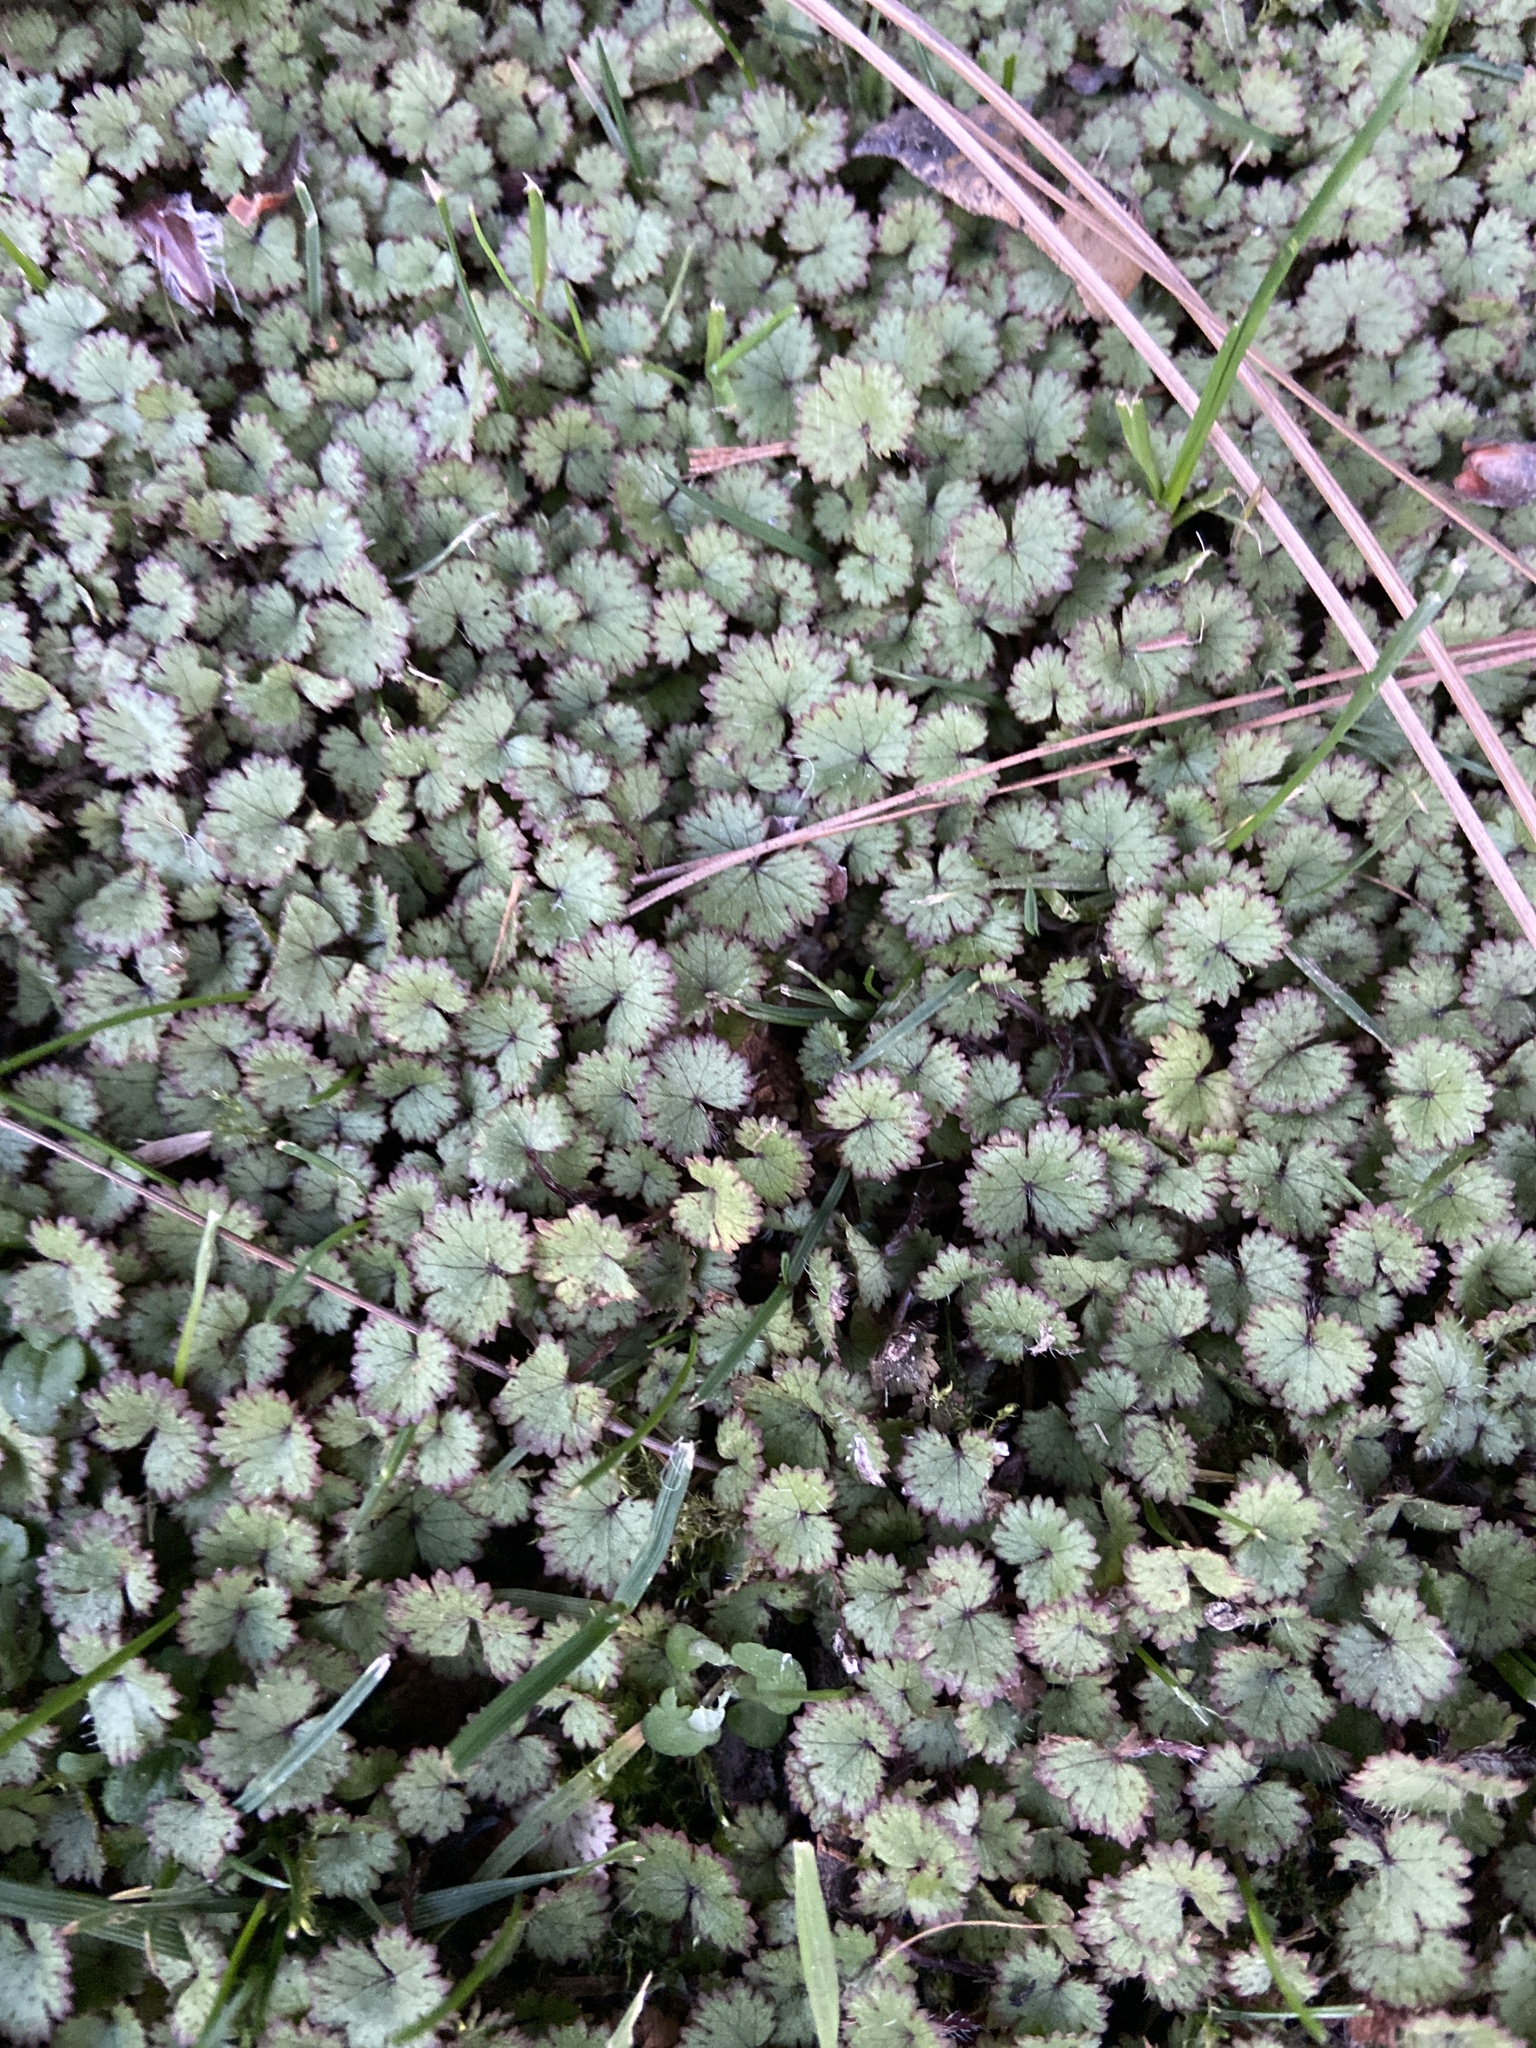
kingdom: Plantae
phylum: Tracheophyta
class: Magnoliopsida
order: Apiales
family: Araliaceae
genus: Hydrocotyle
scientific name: Hydrocotyle moschata
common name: Hairy pennywort
